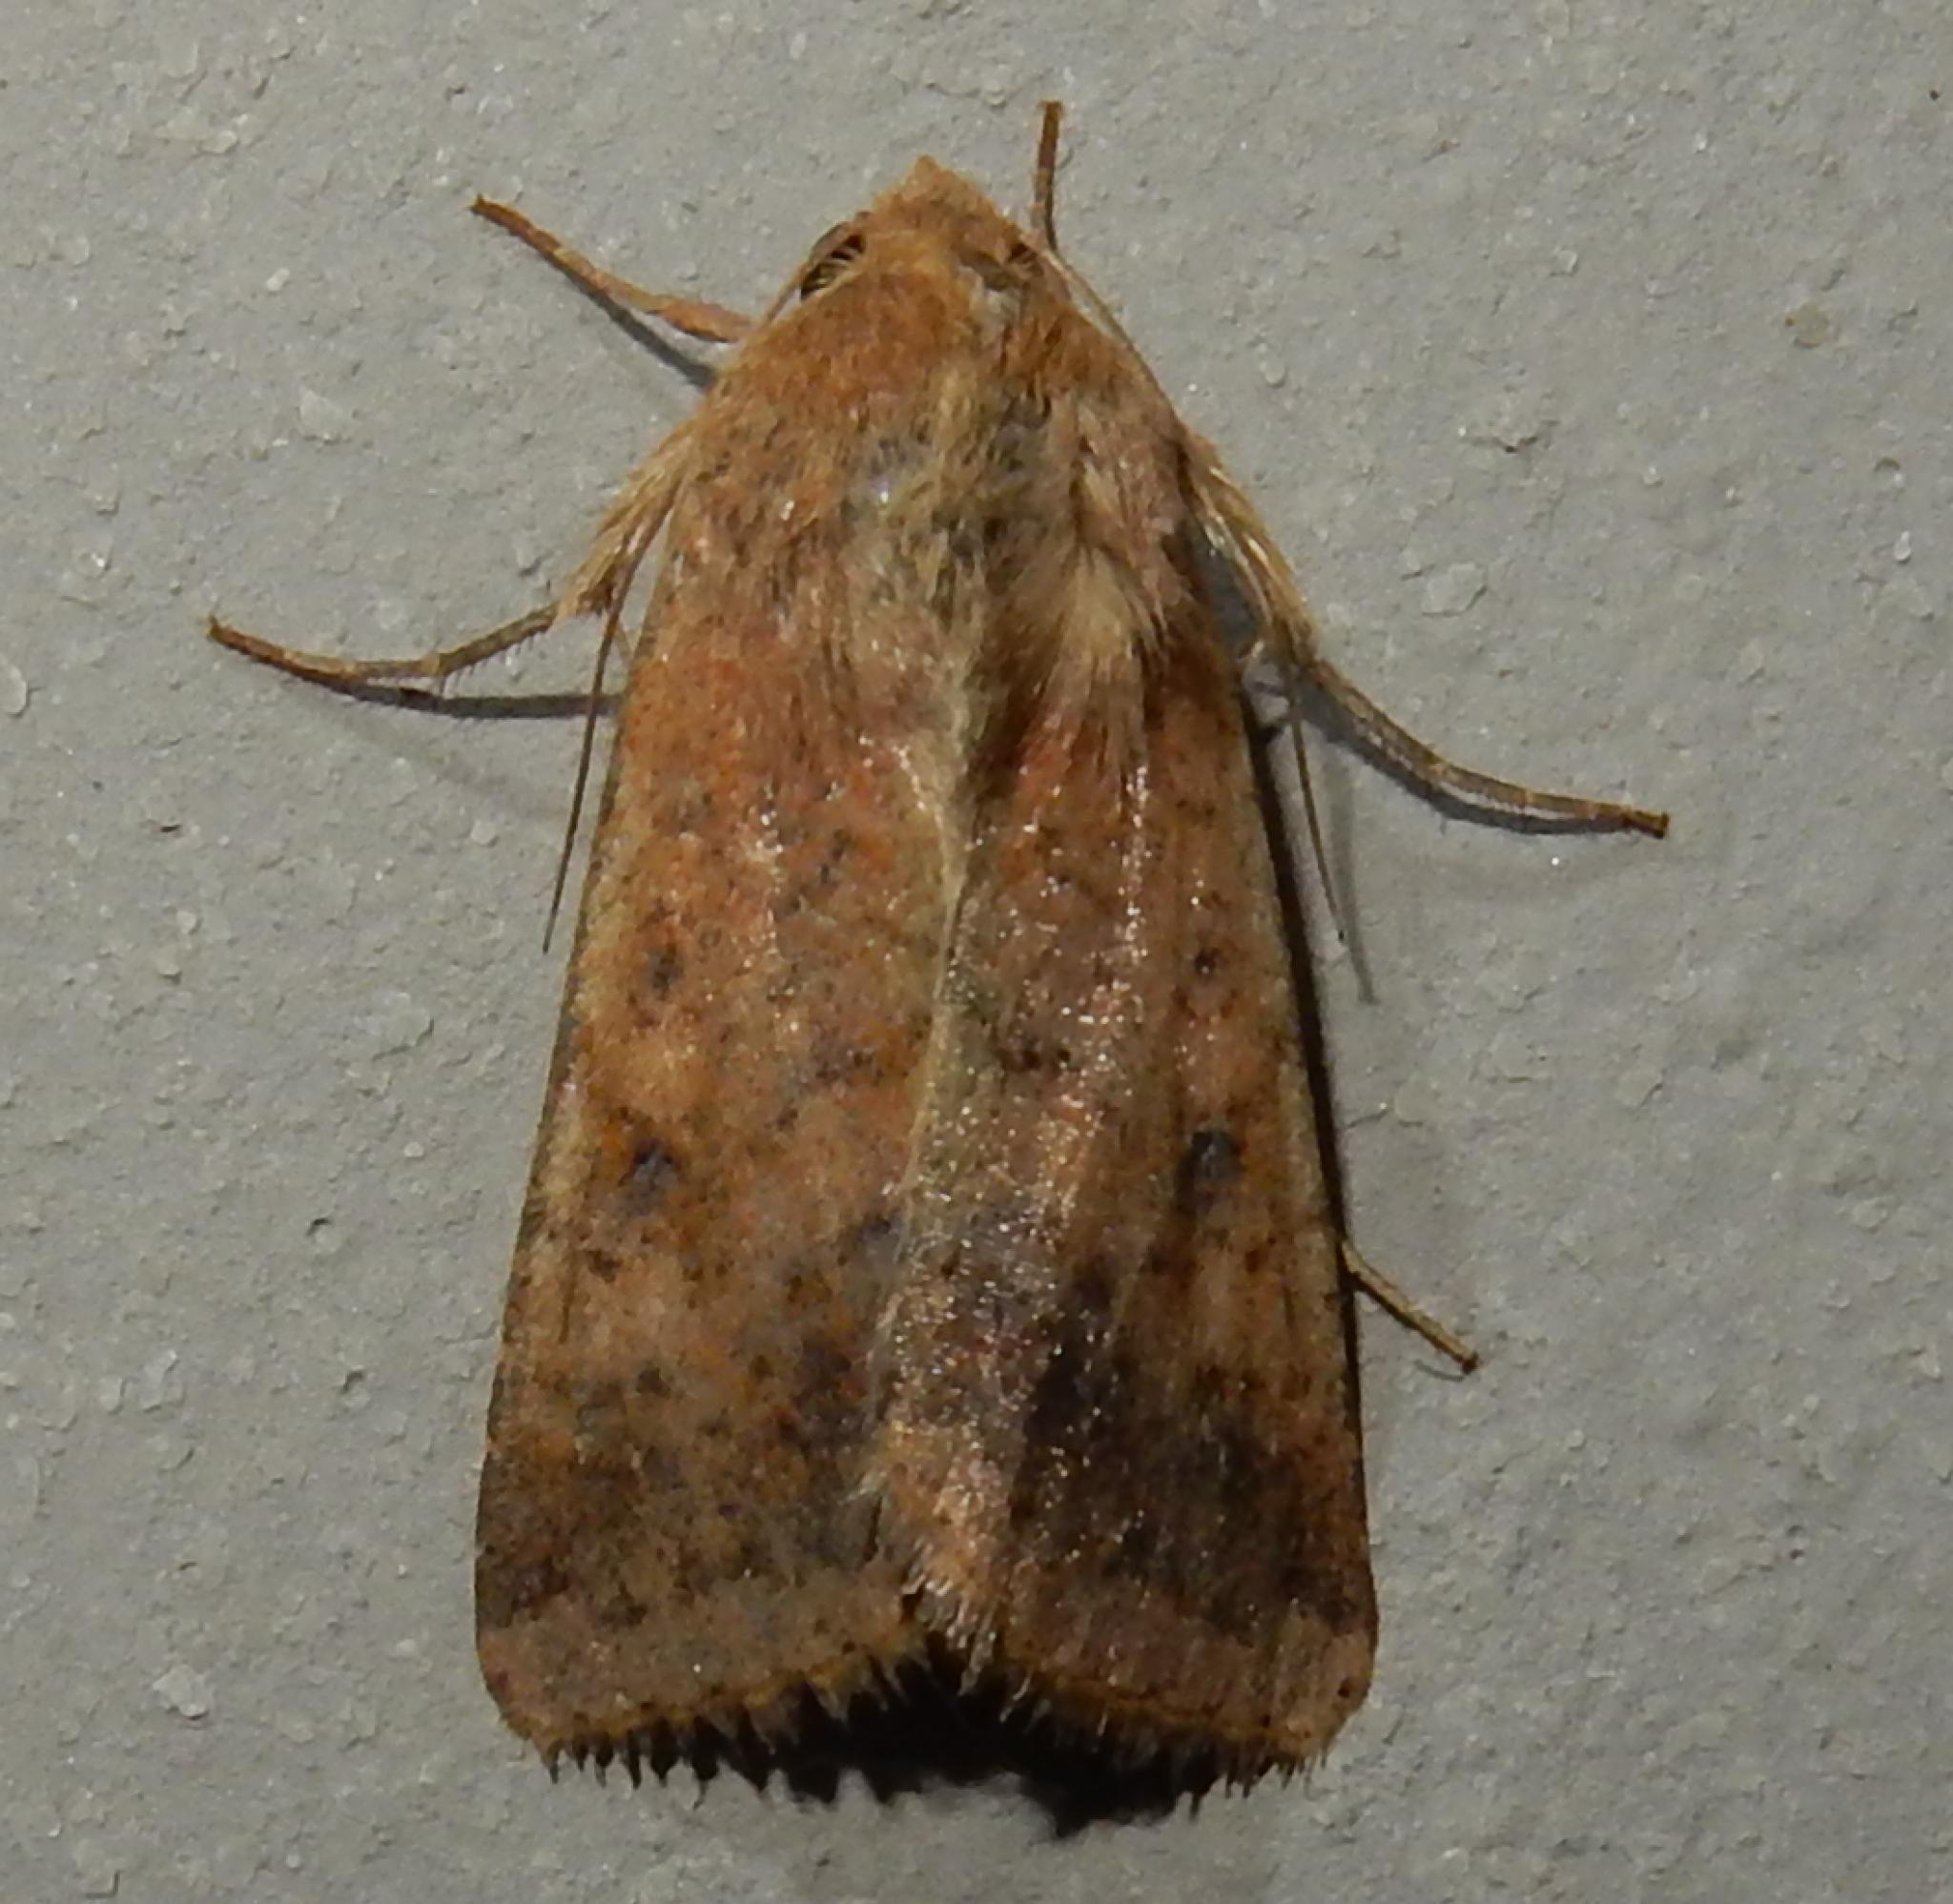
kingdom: Animalia
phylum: Arthropoda
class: Insecta
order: Lepidoptera
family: Noctuidae
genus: Helicoverpa
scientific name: Helicoverpa armigera
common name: Cotton bollworm
